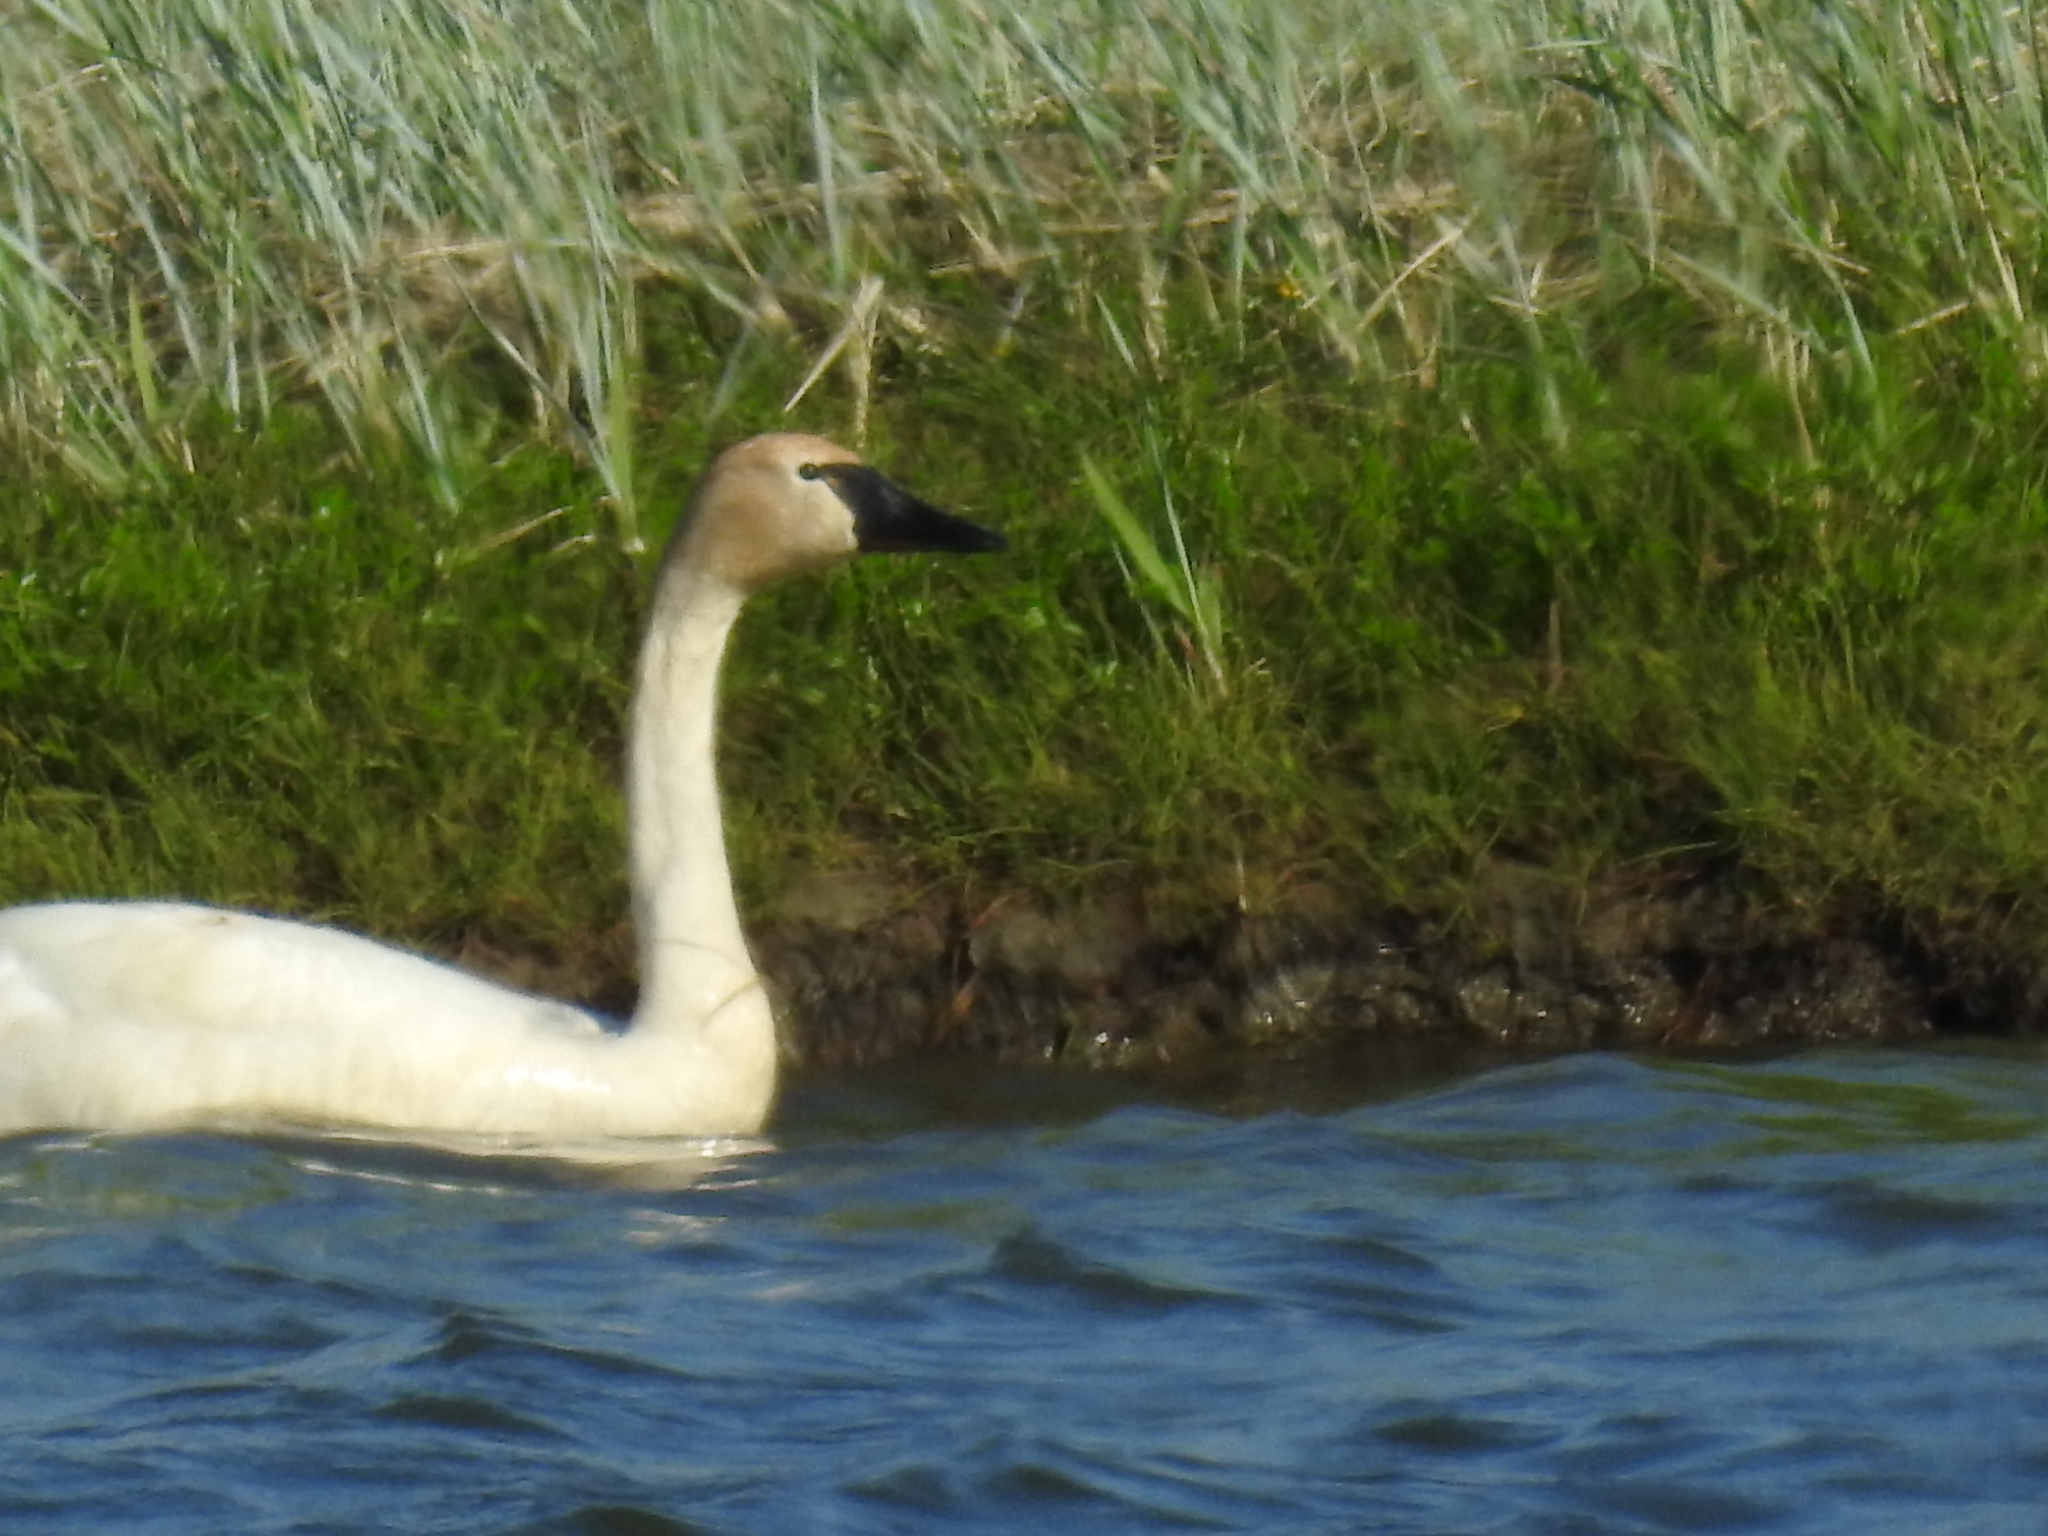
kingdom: Animalia
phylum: Chordata
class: Aves
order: Anseriformes
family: Anatidae
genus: Cygnus
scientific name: Cygnus columbianus
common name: Tundra swan
